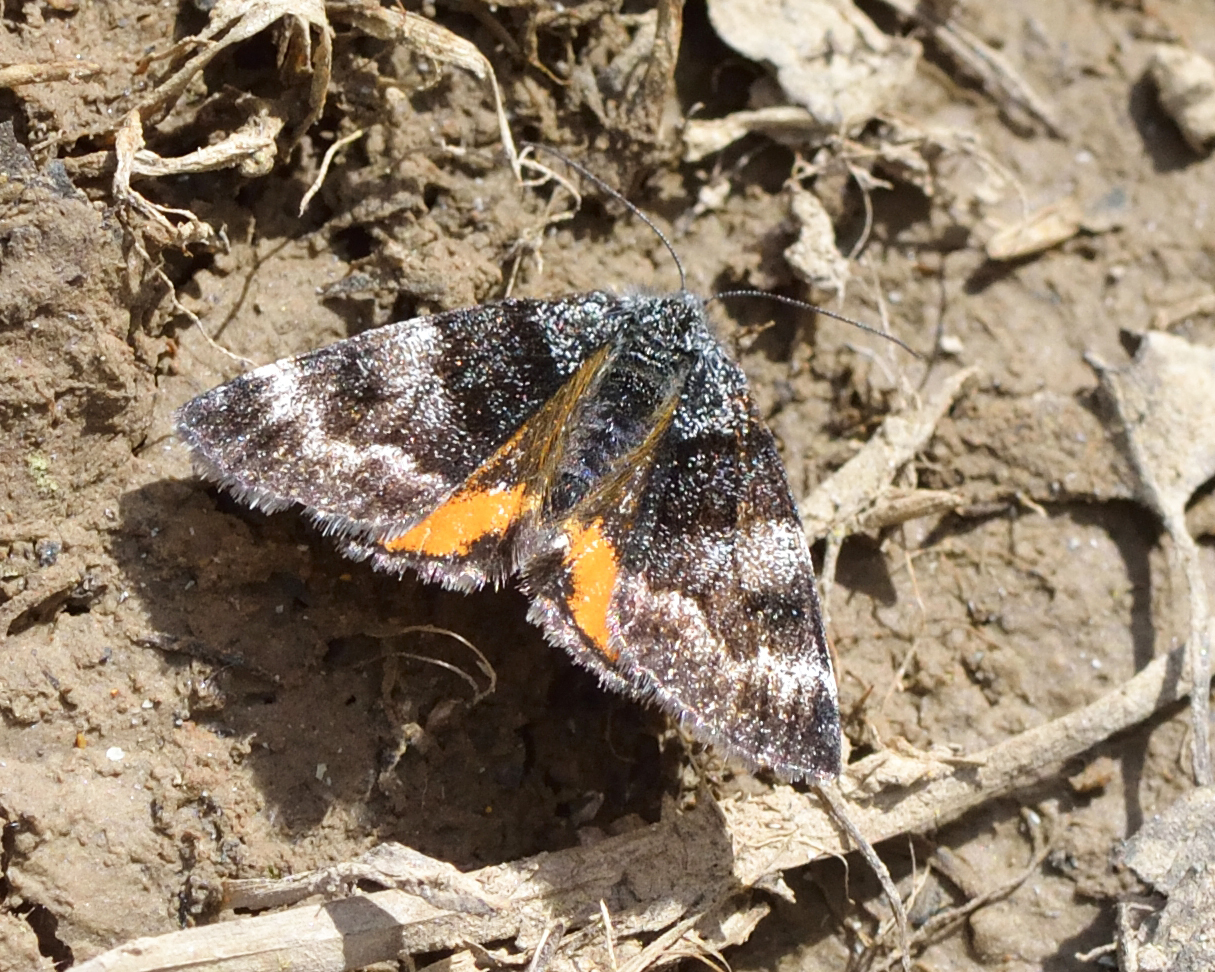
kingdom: Animalia
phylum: Arthropoda
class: Insecta
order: Lepidoptera
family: Geometridae
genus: Archiearis
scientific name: Archiearis notha
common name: Light orange underwing
